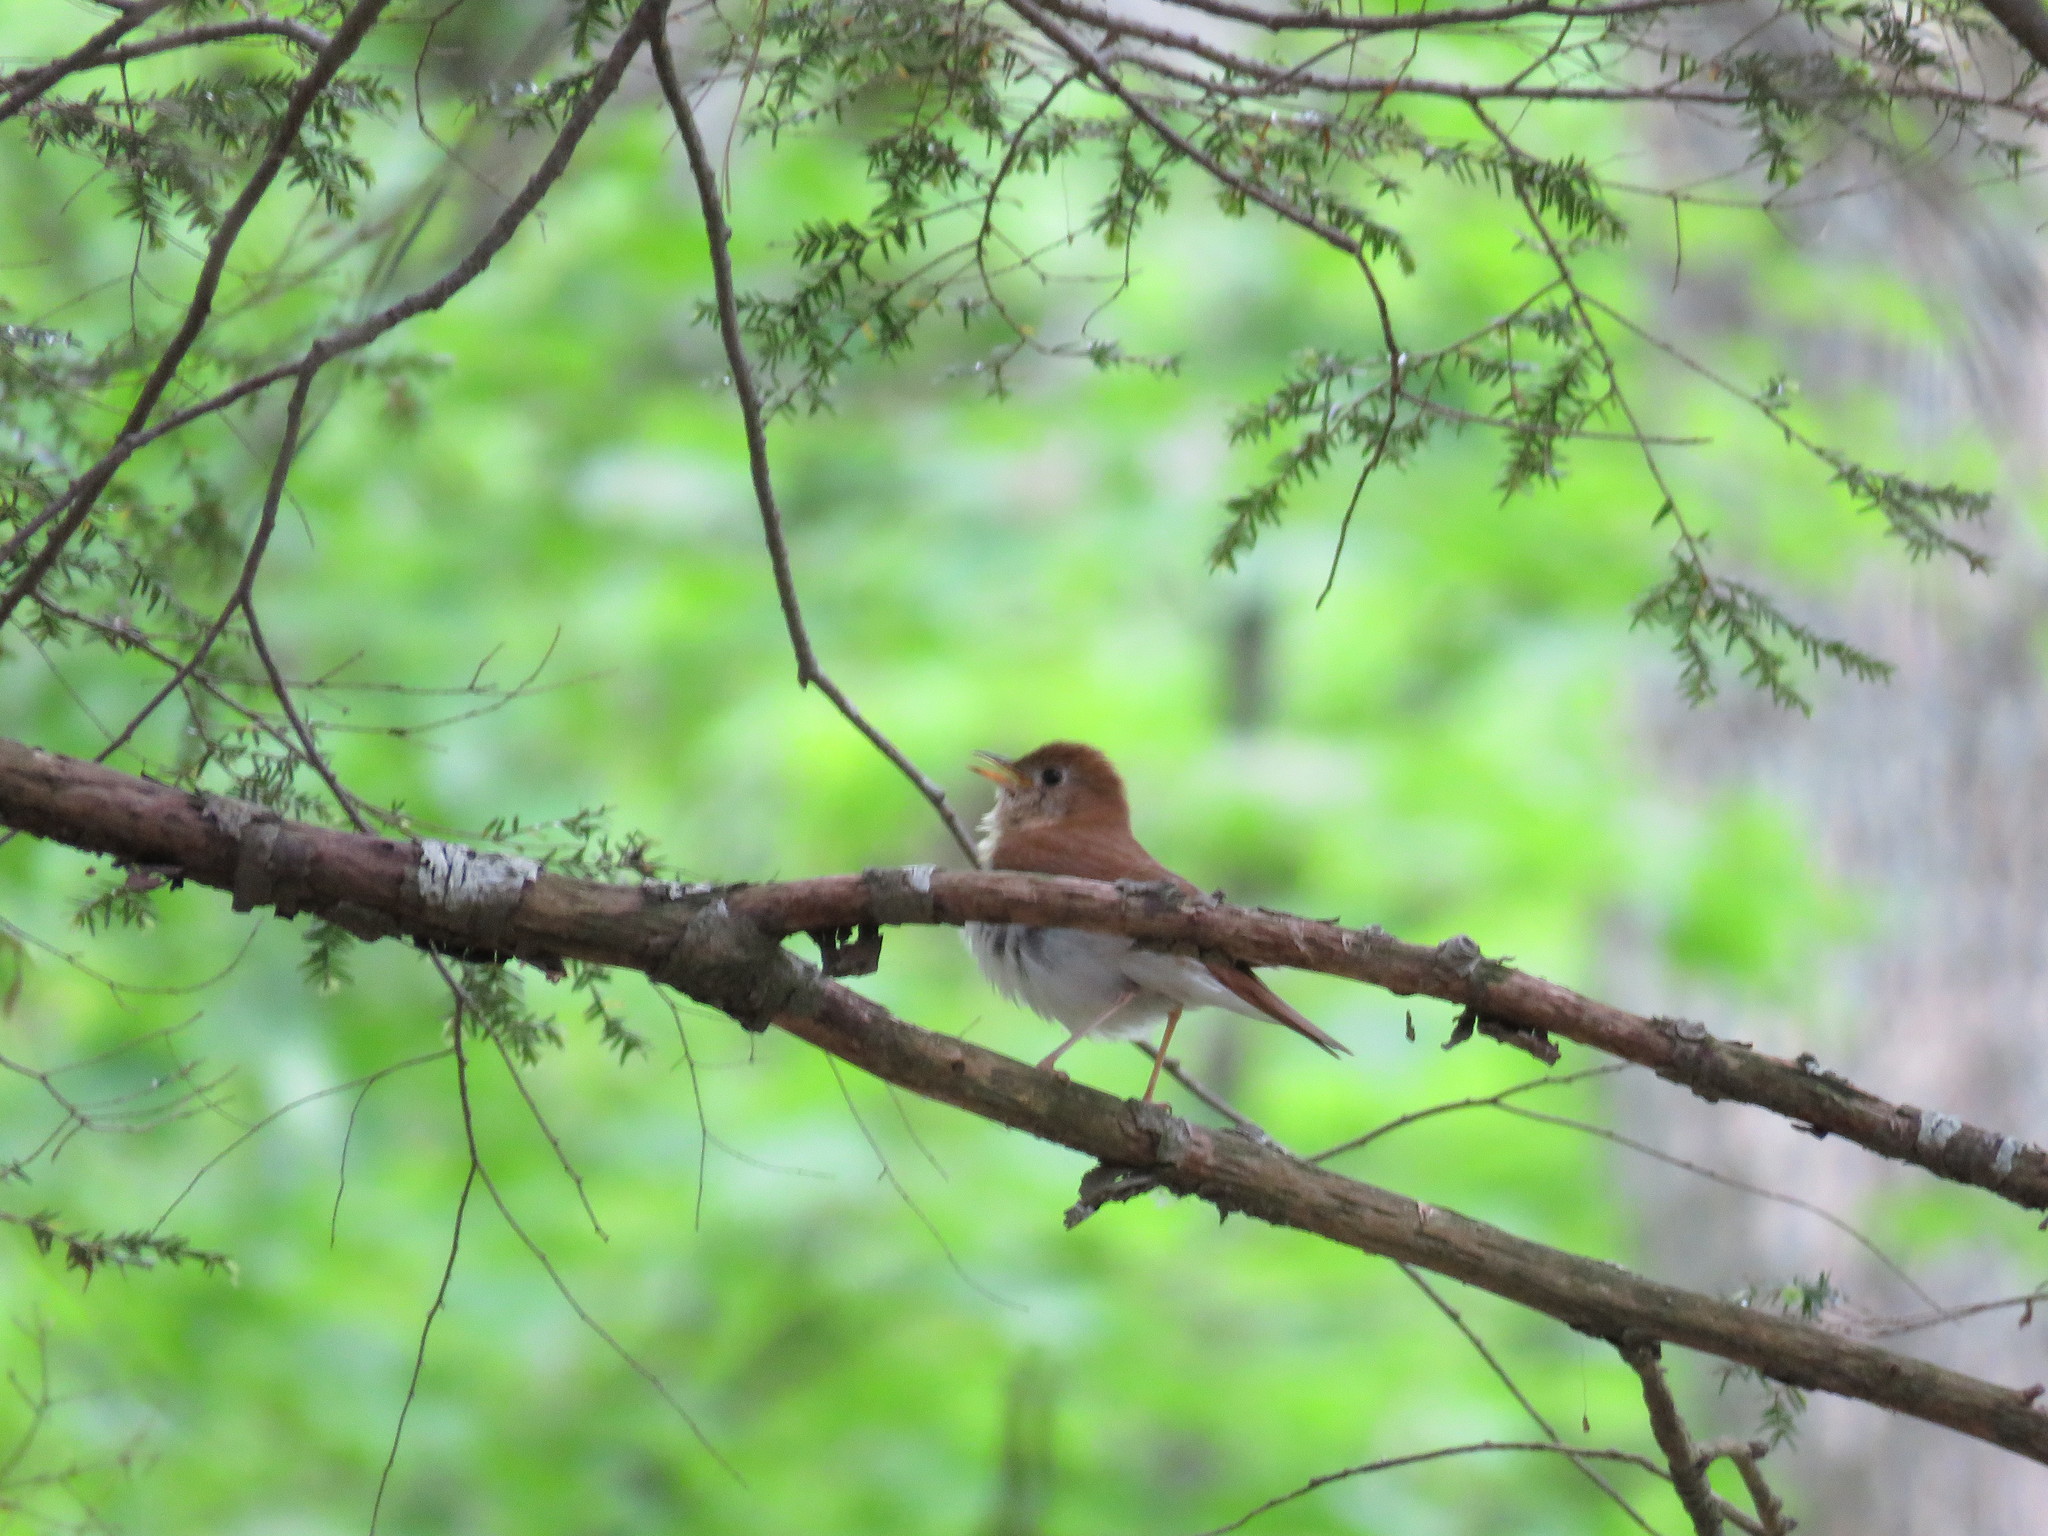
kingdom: Animalia
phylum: Chordata
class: Aves
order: Passeriformes
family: Turdidae
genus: Catharus
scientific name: Catharus fuscescens
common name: Veery
